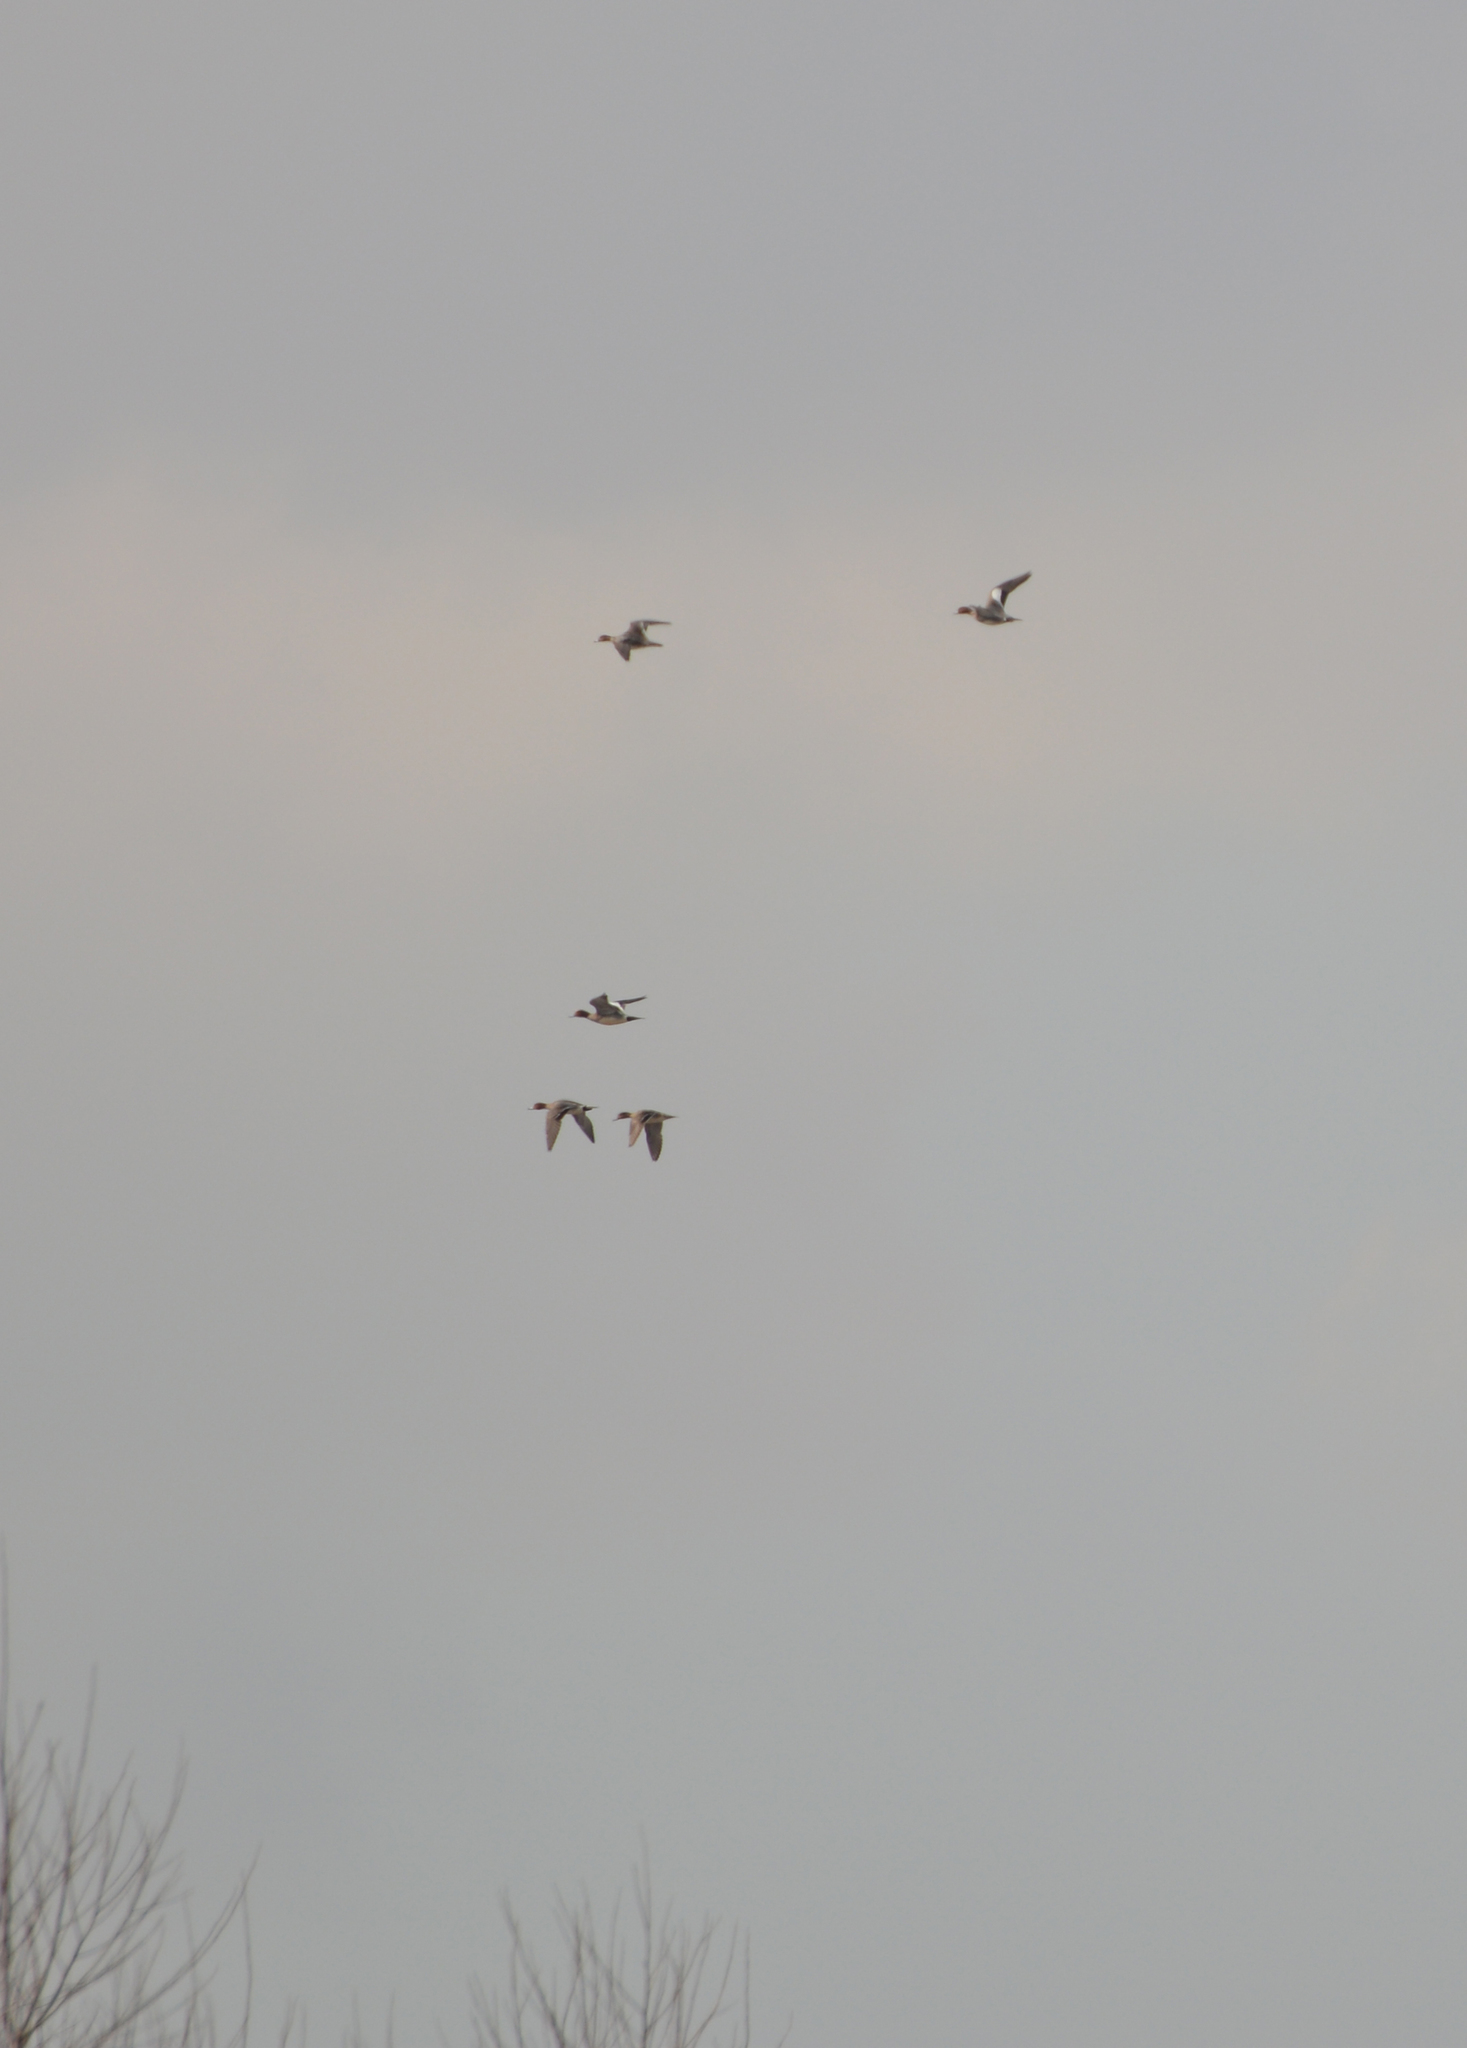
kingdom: Animalia
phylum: Chordata
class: Aves
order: Anseriformes
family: Anatidae
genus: Mareca
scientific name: Mareca penelope
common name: Eurasian wigeon
